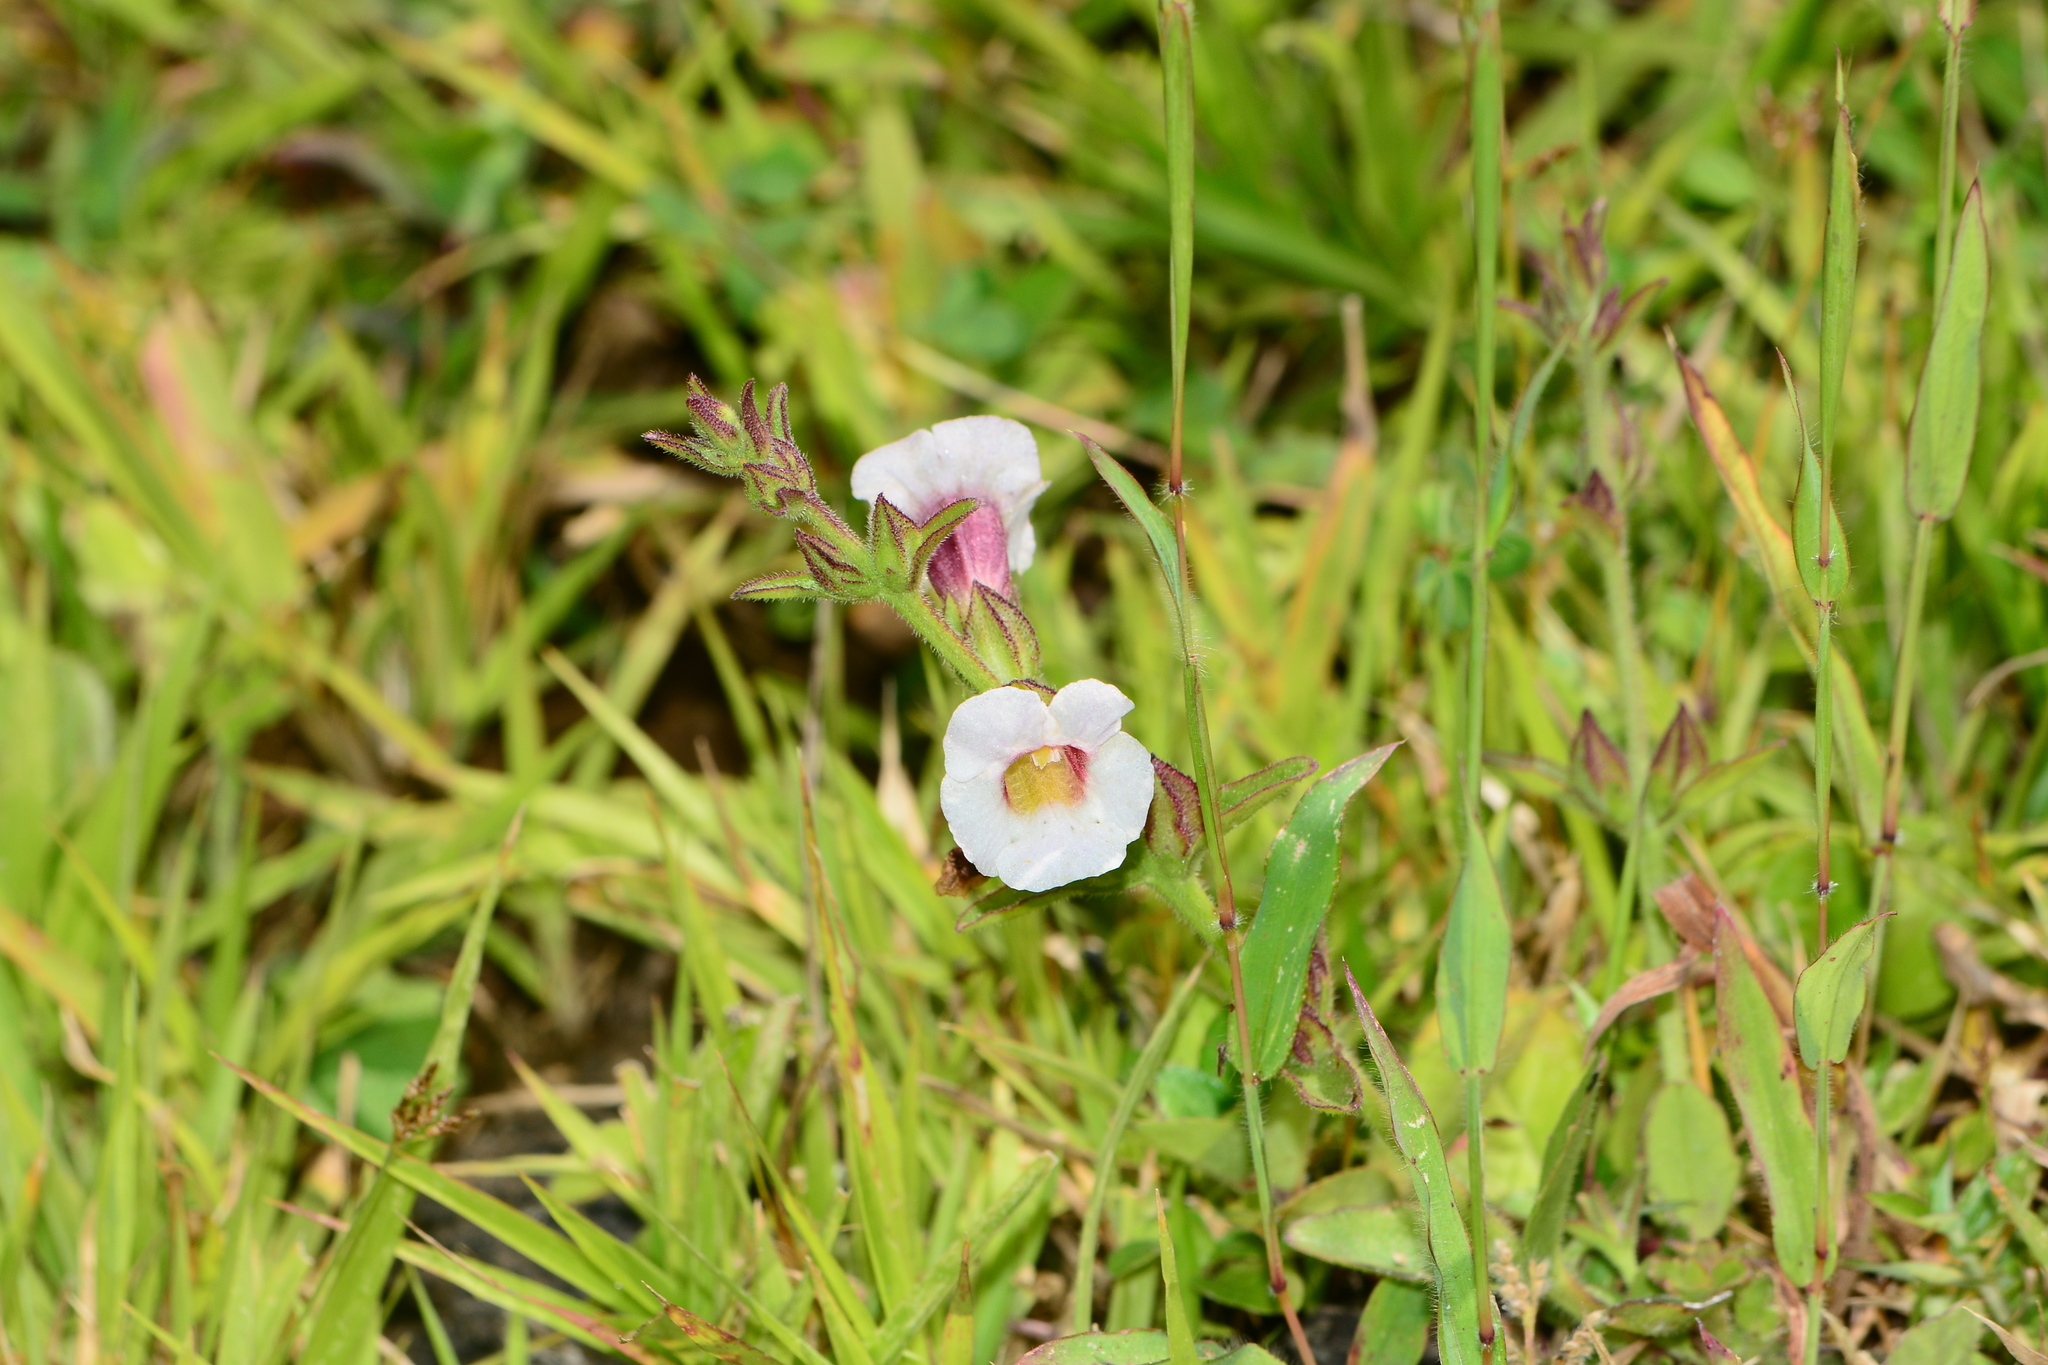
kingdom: Plantae
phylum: Tracheophyta
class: Magnoliopsida
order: Lamiales
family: Orobanchaceae
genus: Centranthera
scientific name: Centranthera indica
